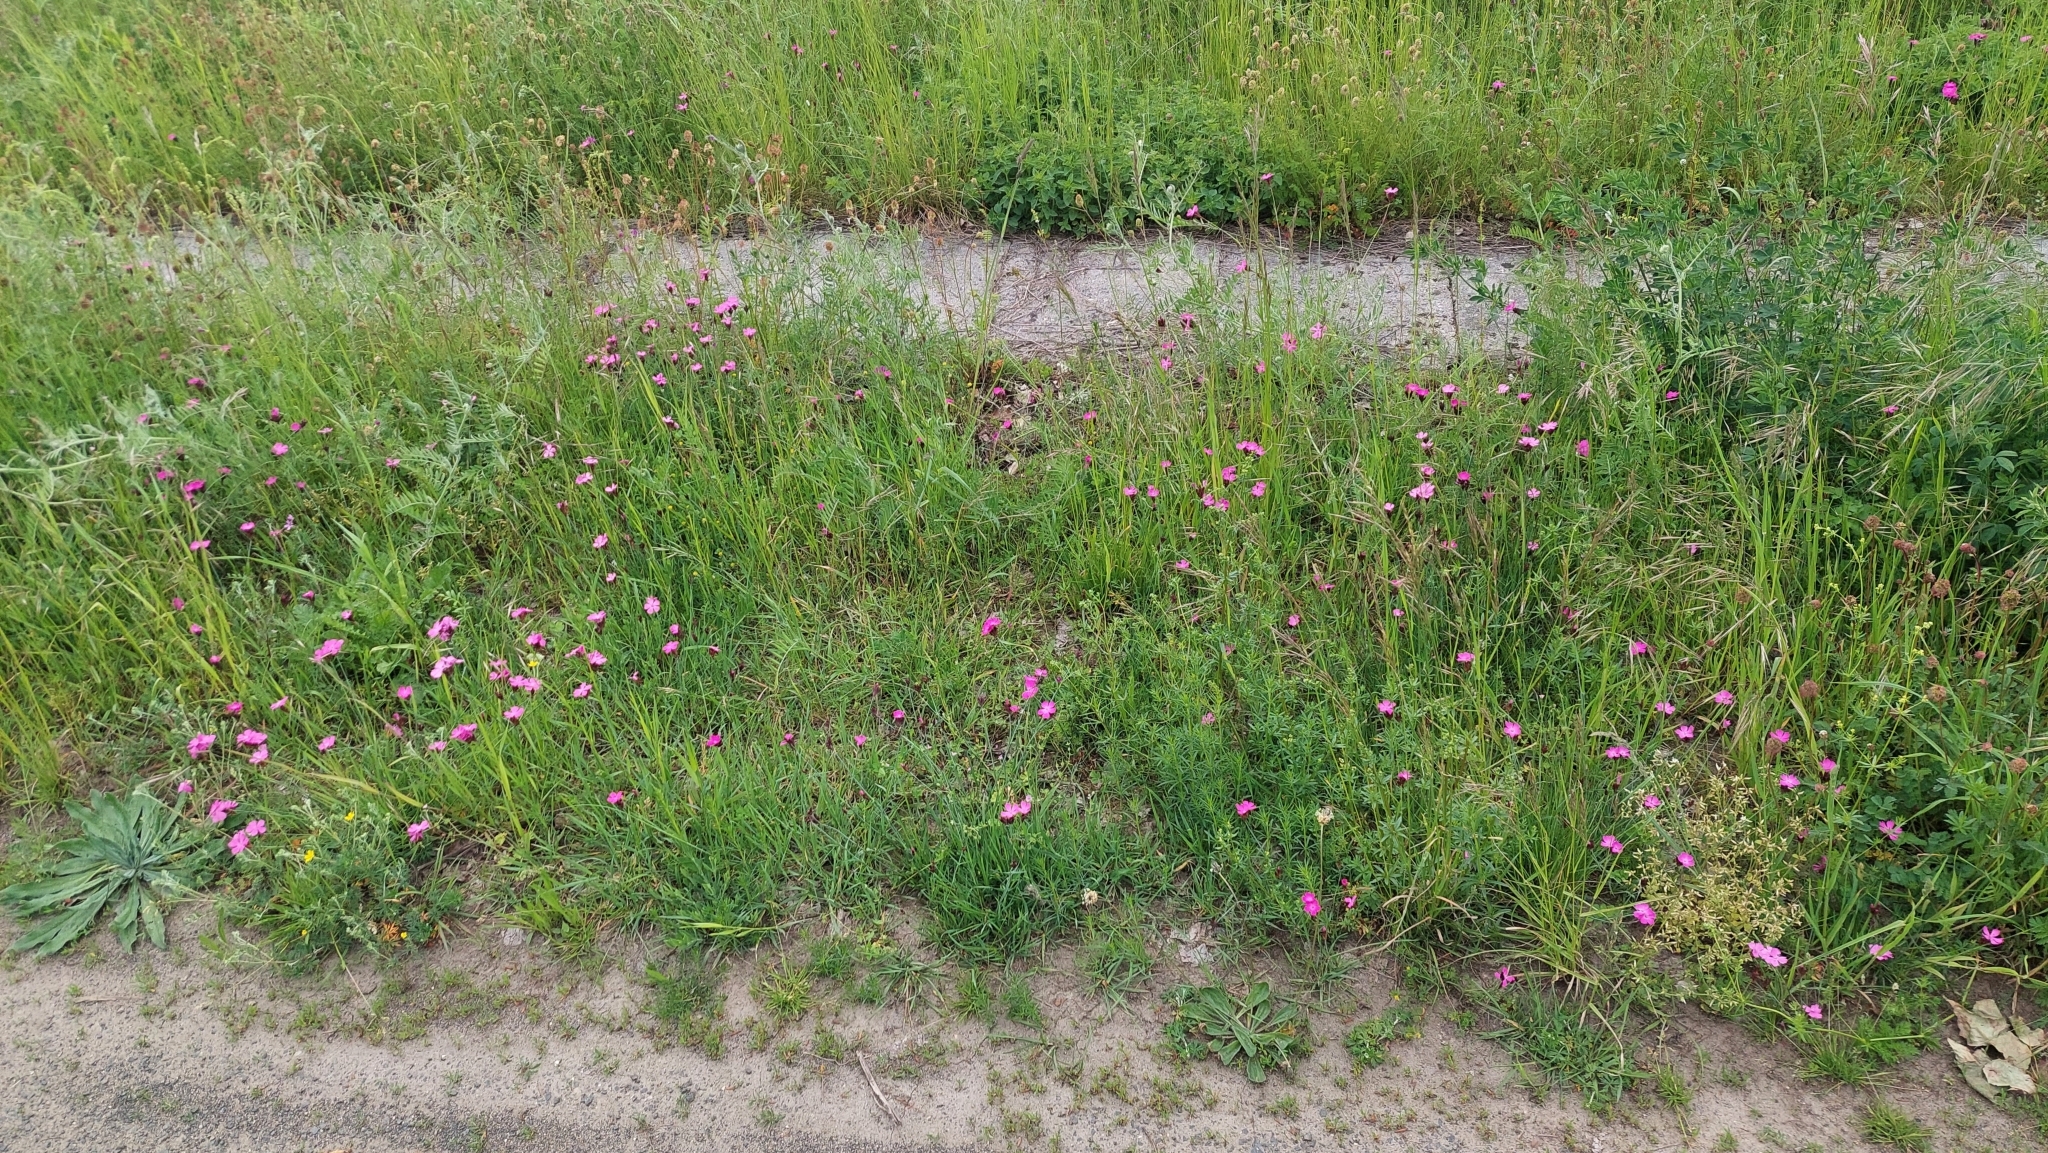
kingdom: Plantae
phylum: Tracheophyta
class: Magnoliopsida
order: Caryophyllales
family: Caryophyllaceae
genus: Dianthus
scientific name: Dianthus carthusianorum
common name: Carthusian pink
